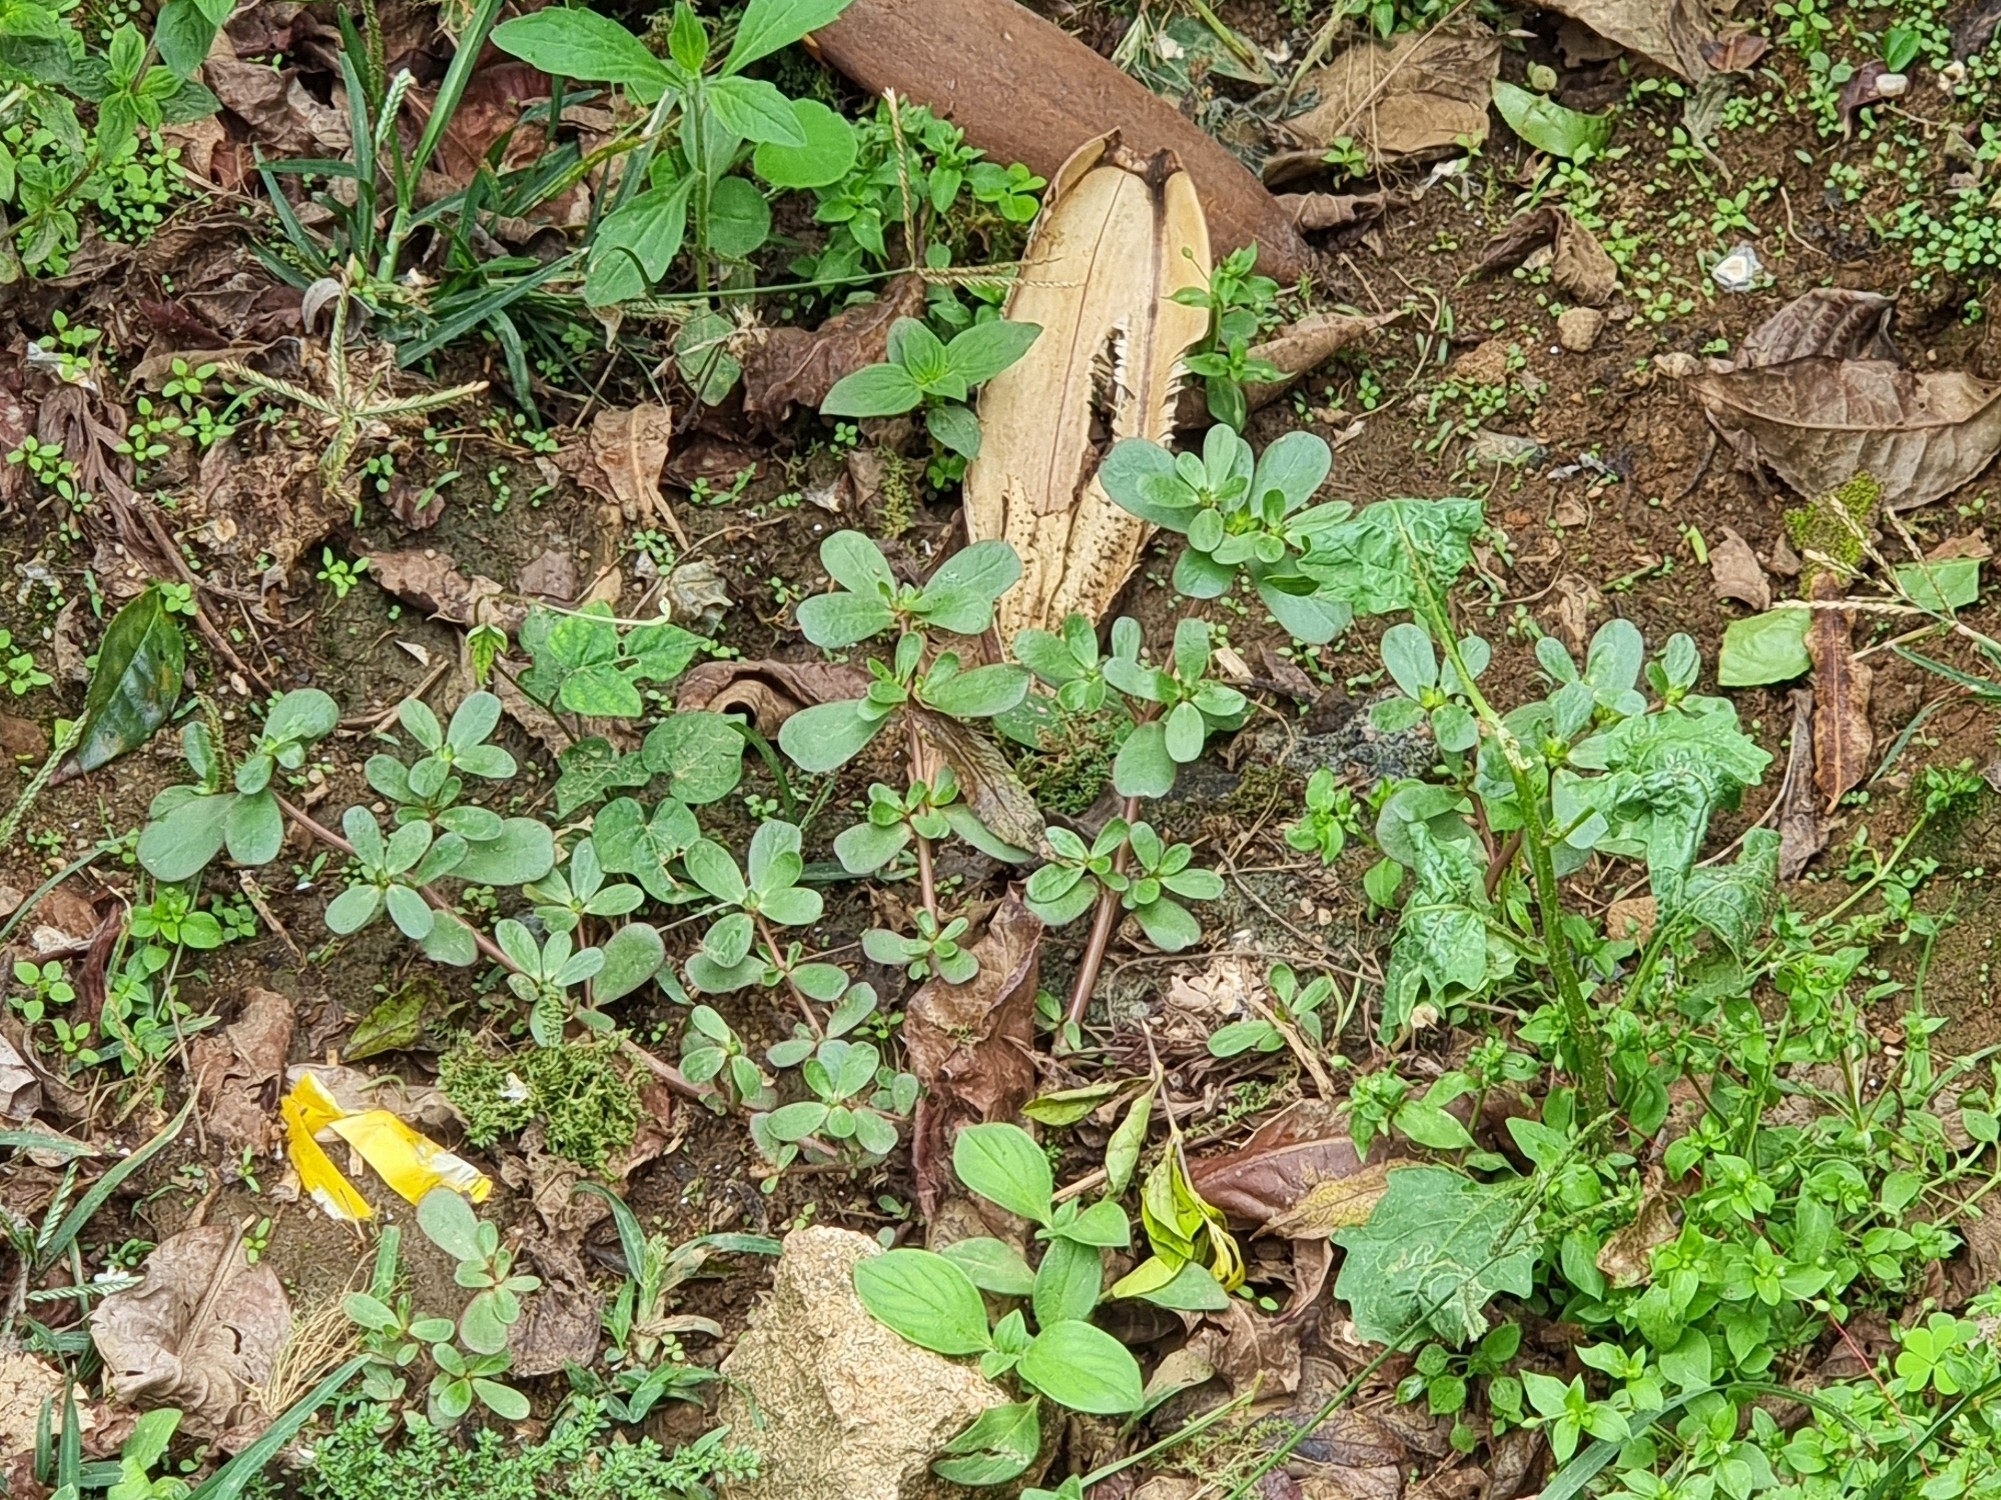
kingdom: Plantae
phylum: Tracheophyta
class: Magnoliopsida
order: Caryophyllales
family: Portulacaceae
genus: Portulaca
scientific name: Portulaca oleracea
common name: Common purslane
